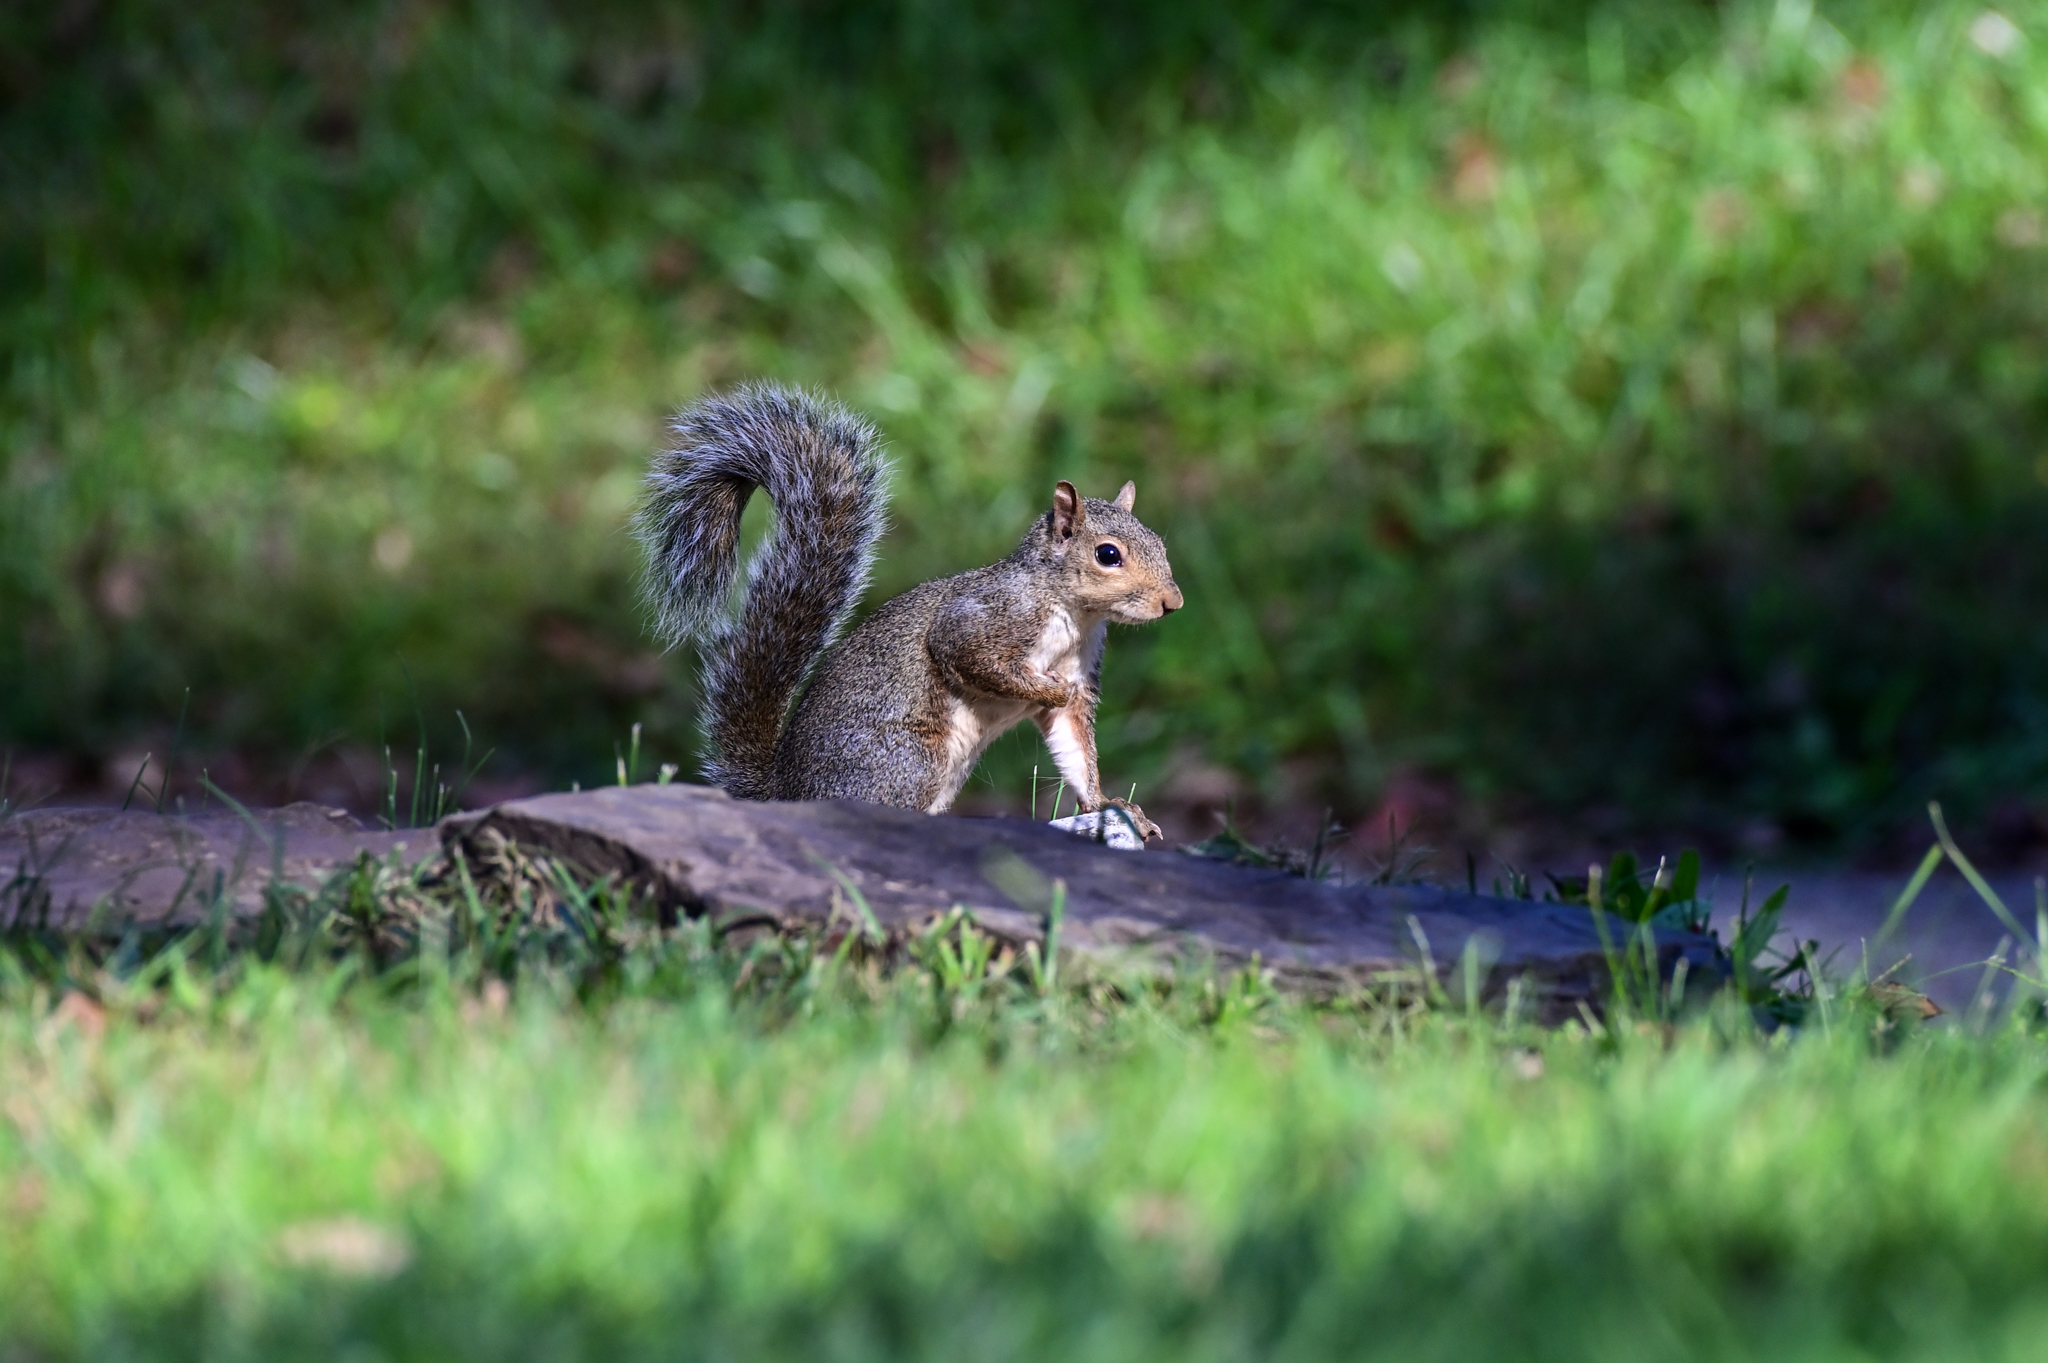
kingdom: Animalia
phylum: Chordata
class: Mammalia
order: Rodentia
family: Sciuridae
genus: Sciurus
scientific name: Sciurus carolinensis
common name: Eastern gray squirrel
